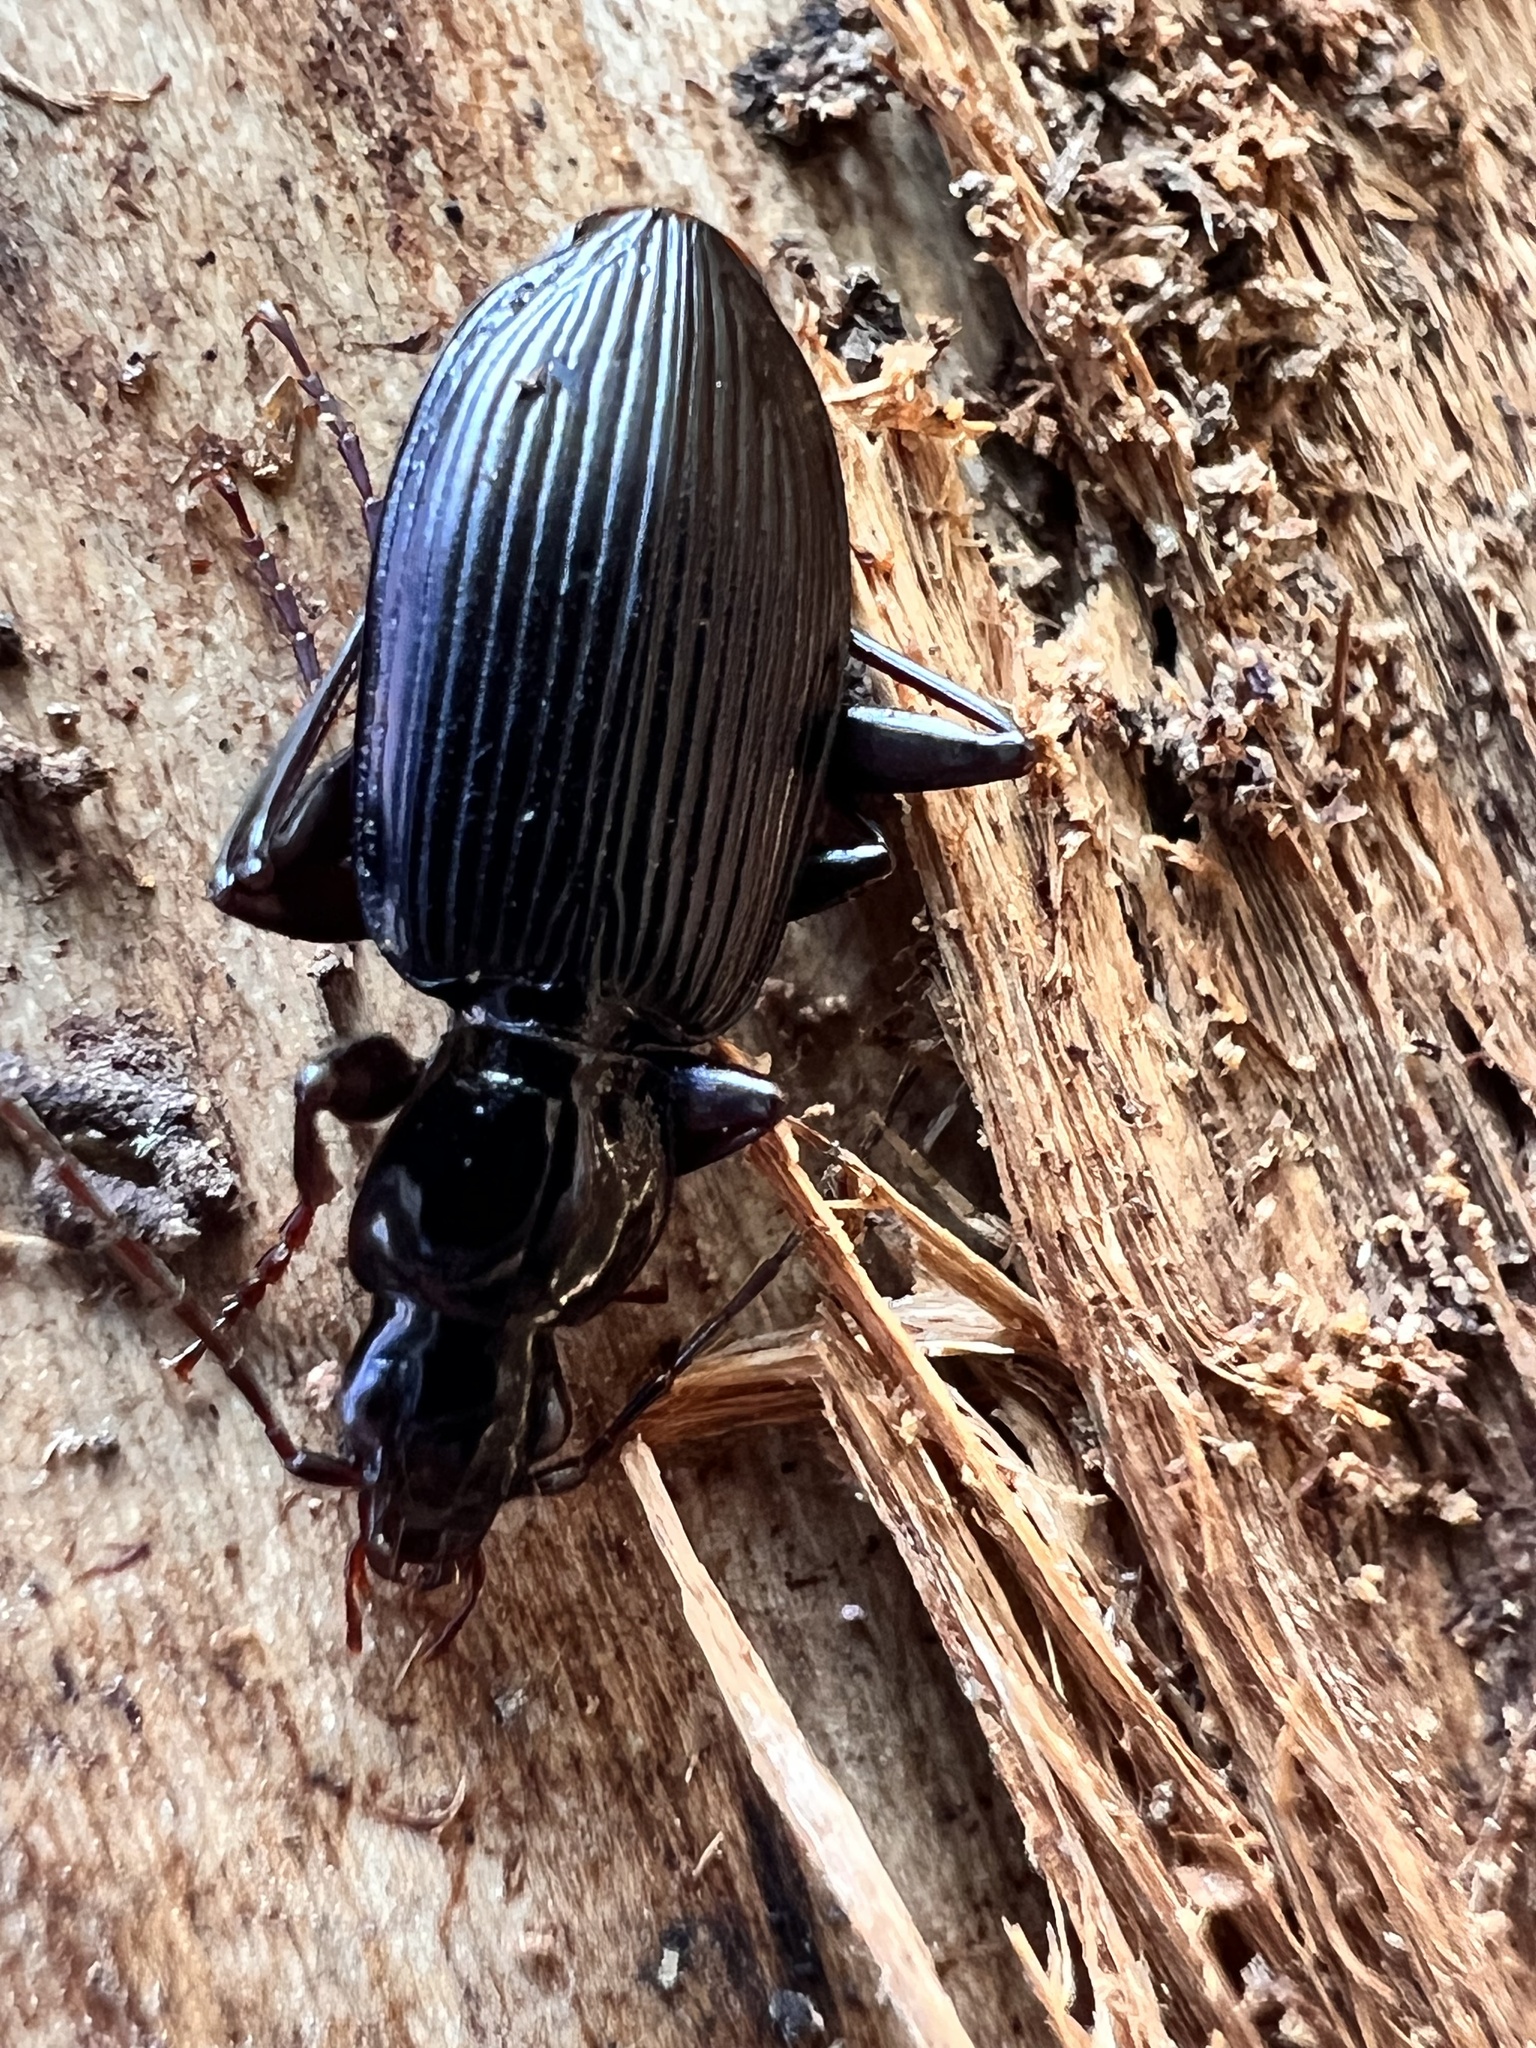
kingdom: Animalia
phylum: Arthropoda
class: Insecta
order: Coleoptera
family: Carabidae
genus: Platynus
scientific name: Platynus decentis
